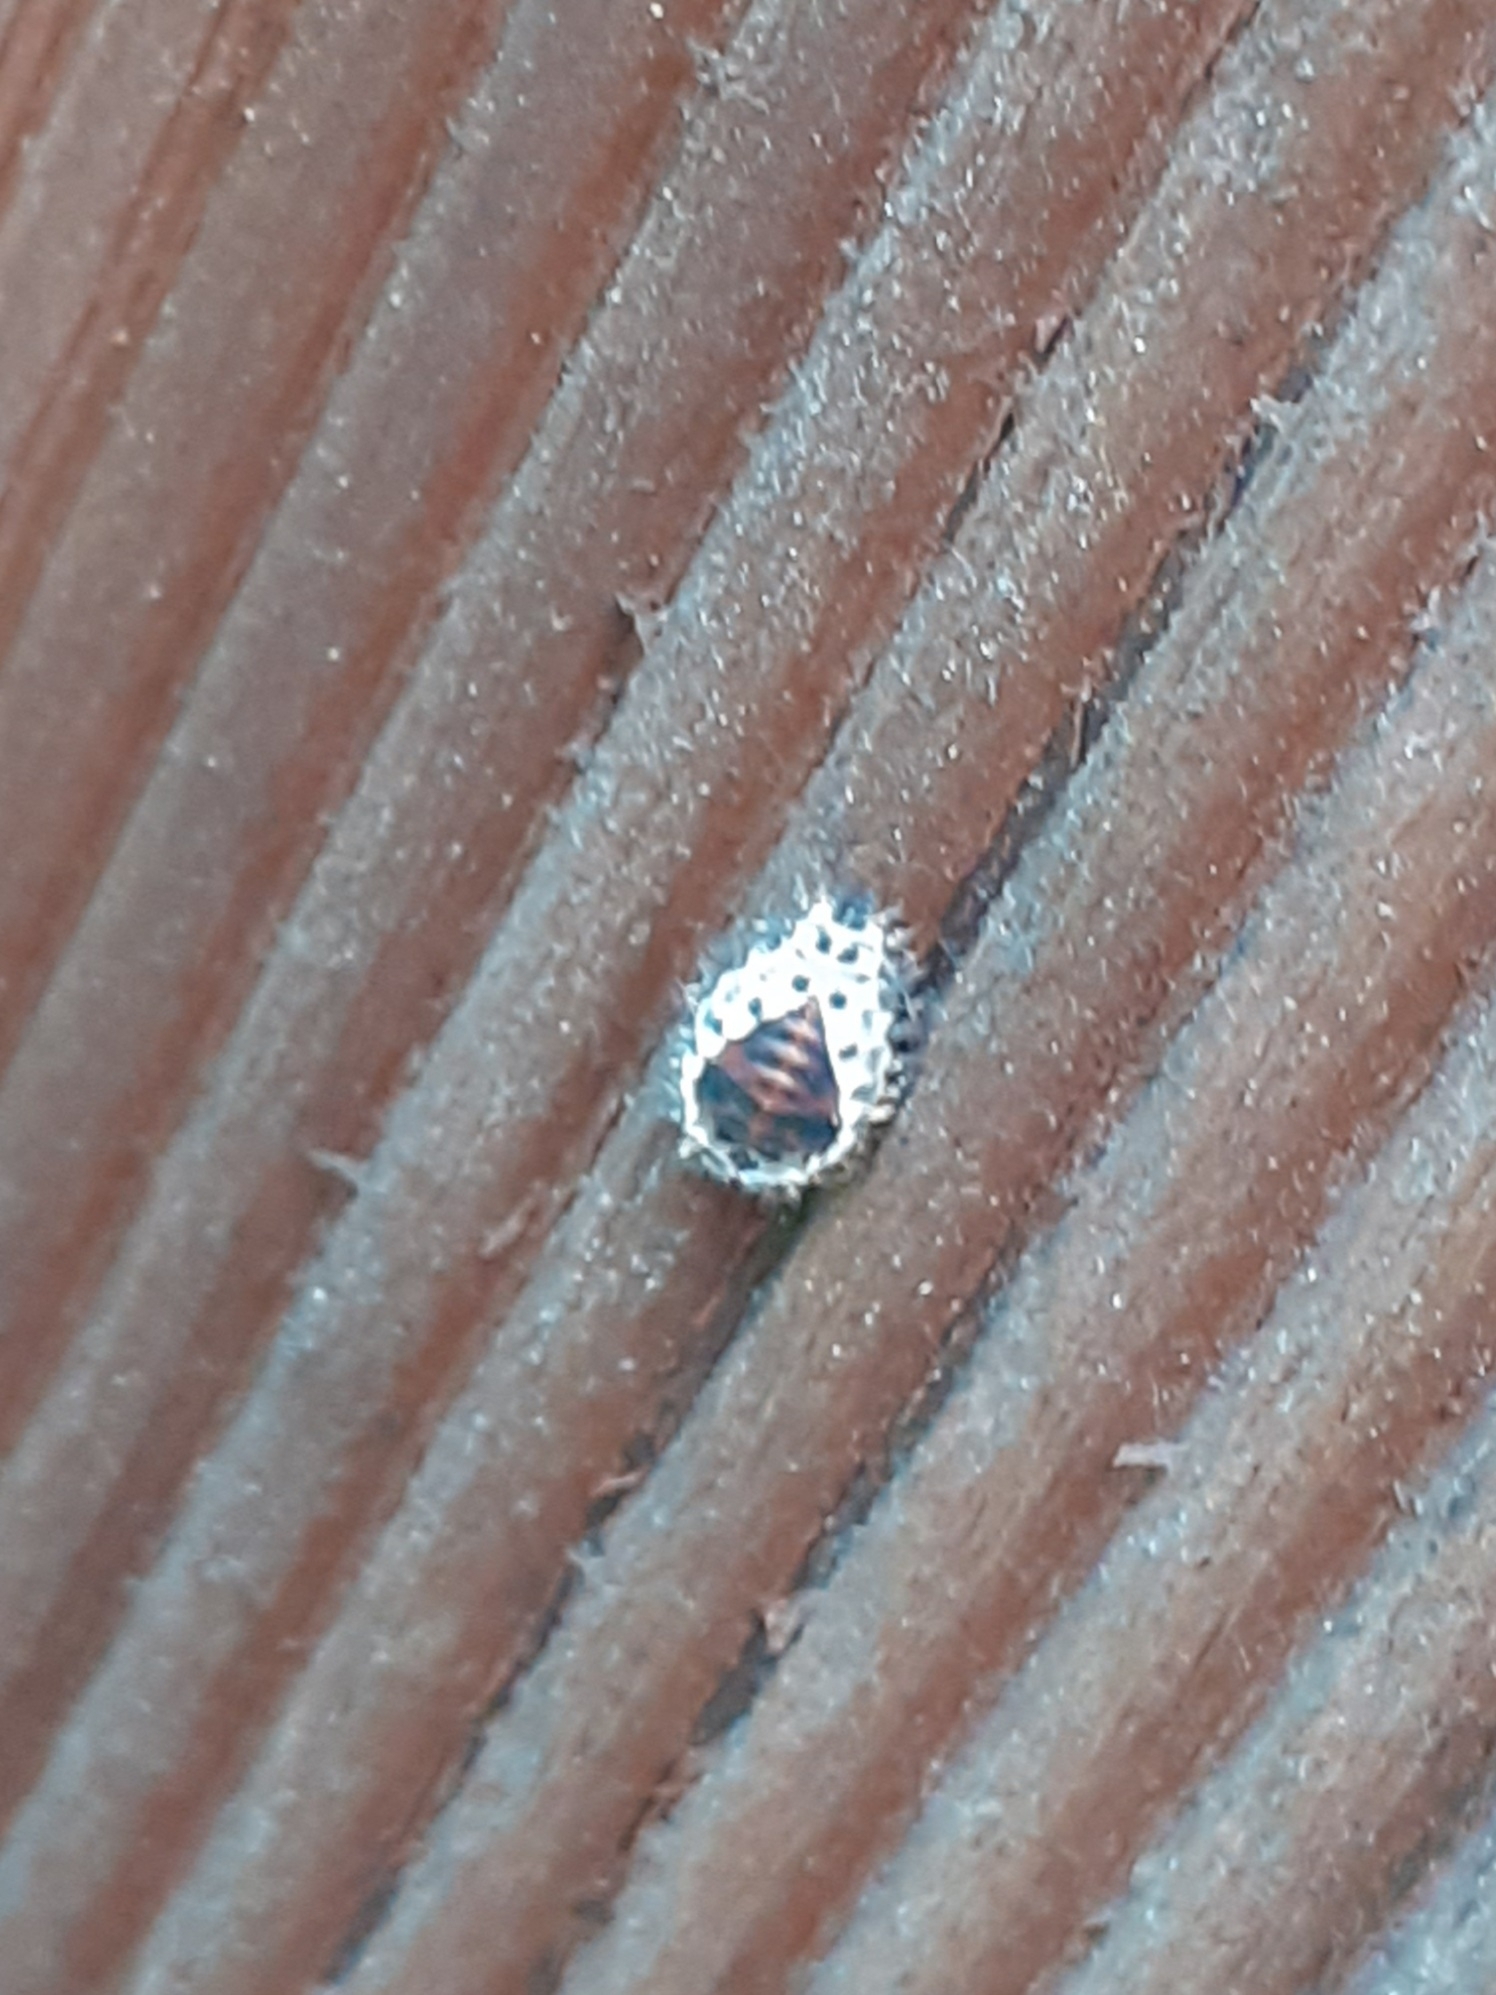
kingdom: Animalia
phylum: Arthropoda
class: Insecta
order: Coleoptera
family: Coccinellidae
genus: Brumus
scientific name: Brumus quadripustulatus
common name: Ladybird beetle
